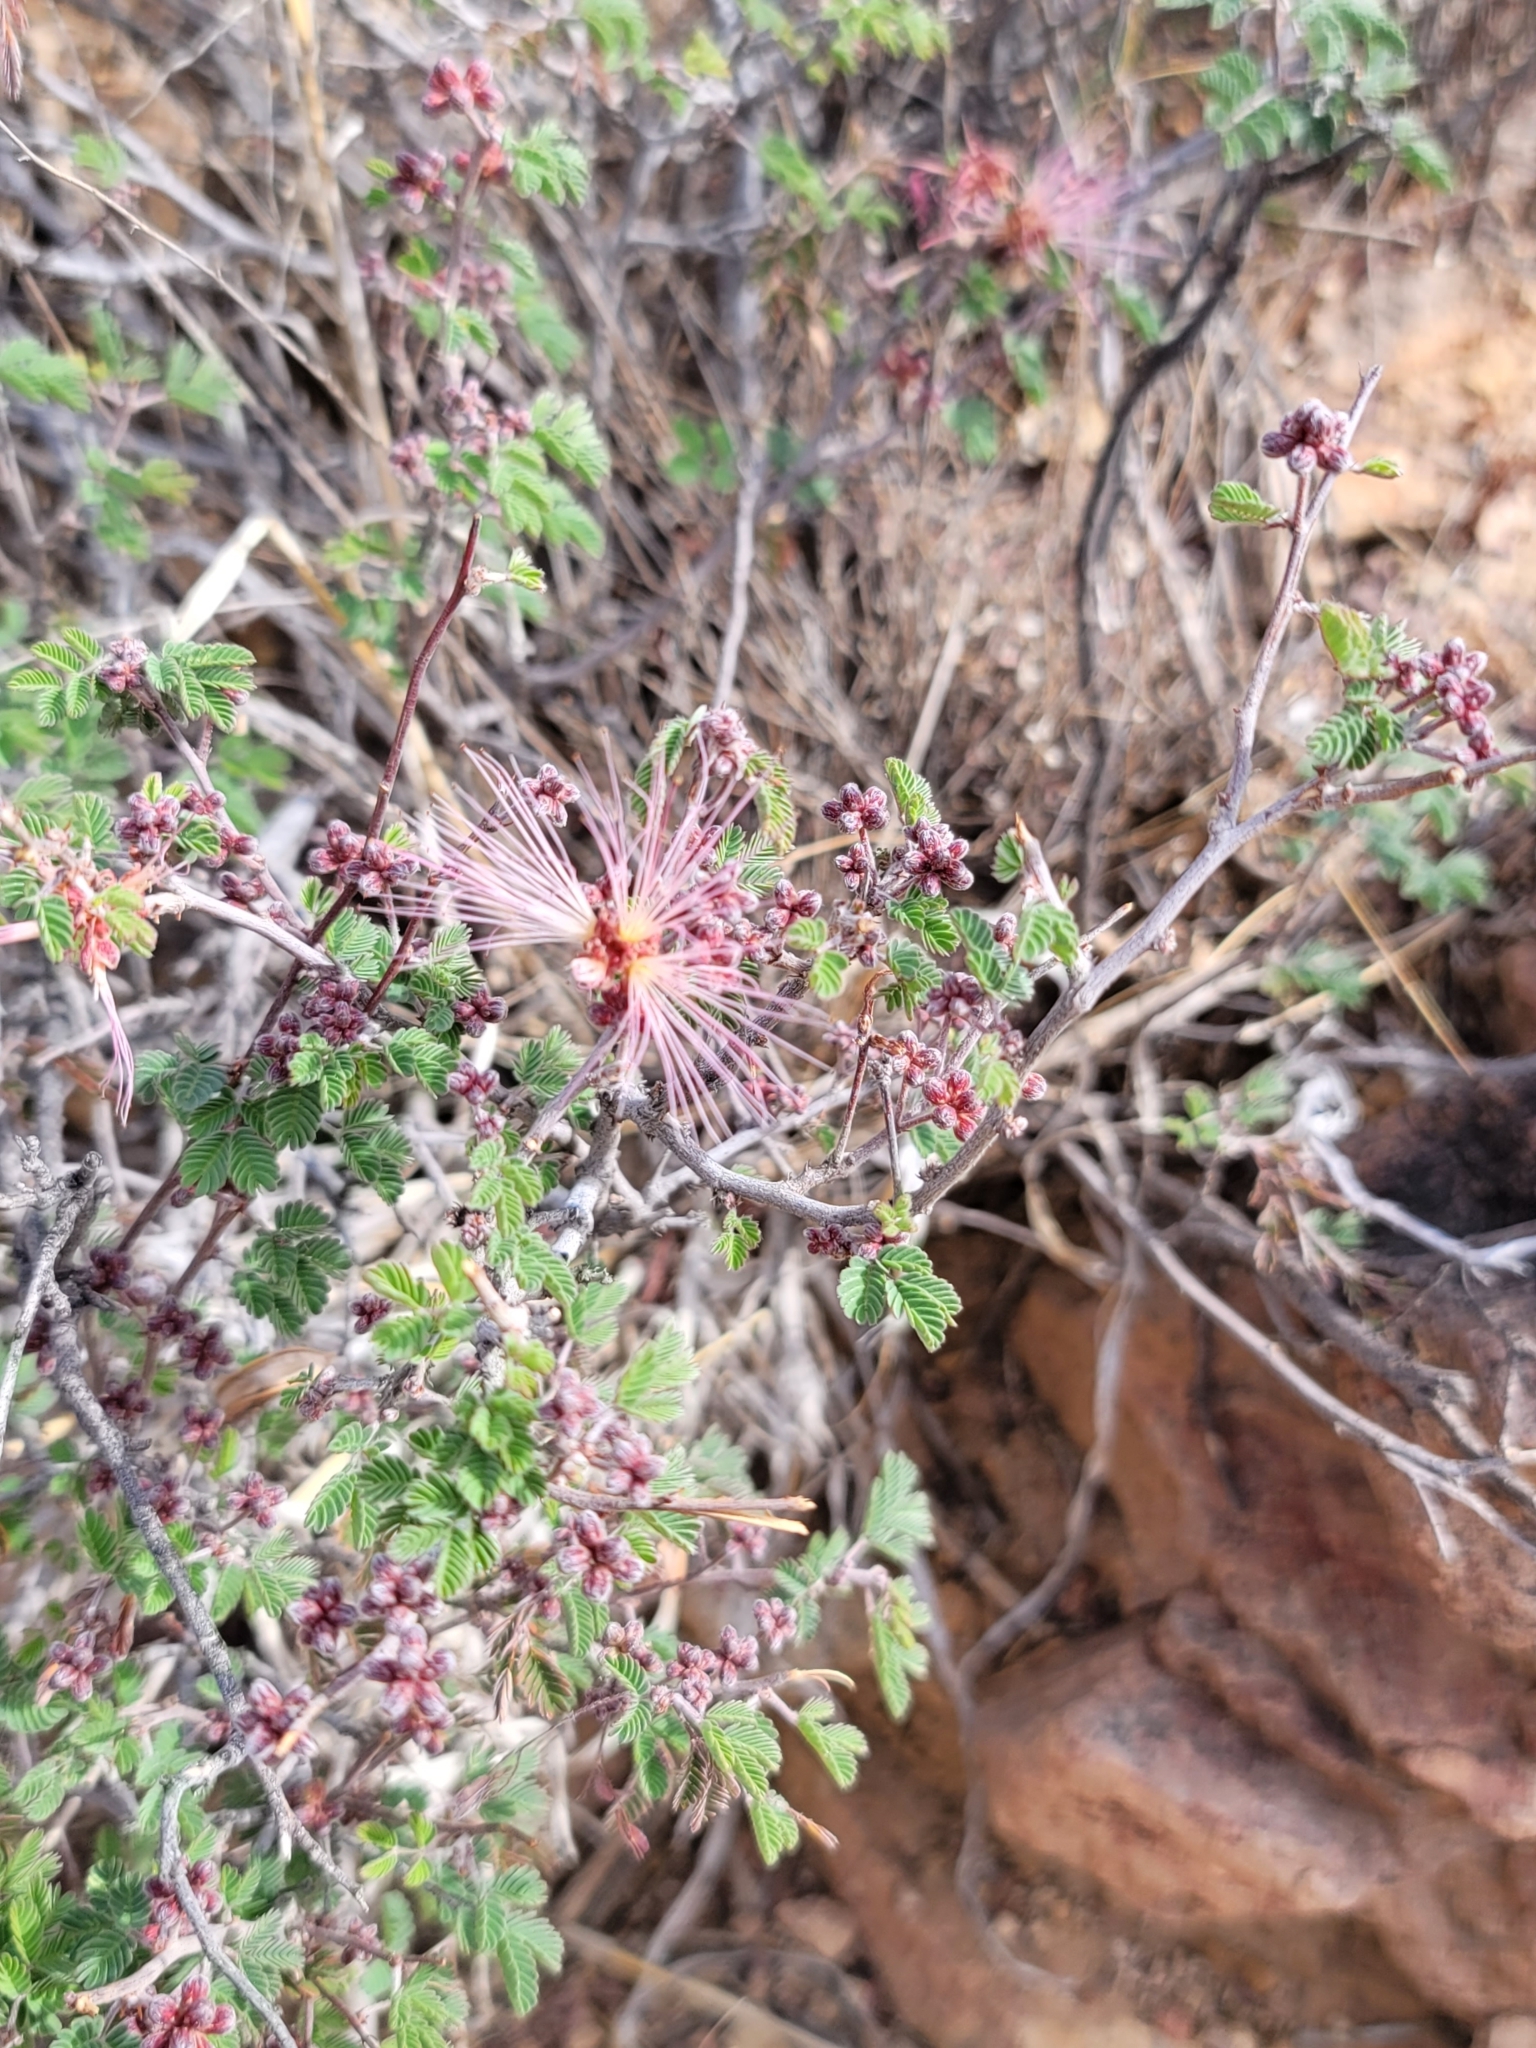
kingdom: Plantae
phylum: Tracheophyta
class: Magnoliopsida
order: Fabales
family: Fabaceae
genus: Calliandra
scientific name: Calliandra eriophylla
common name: Fairy-duster
